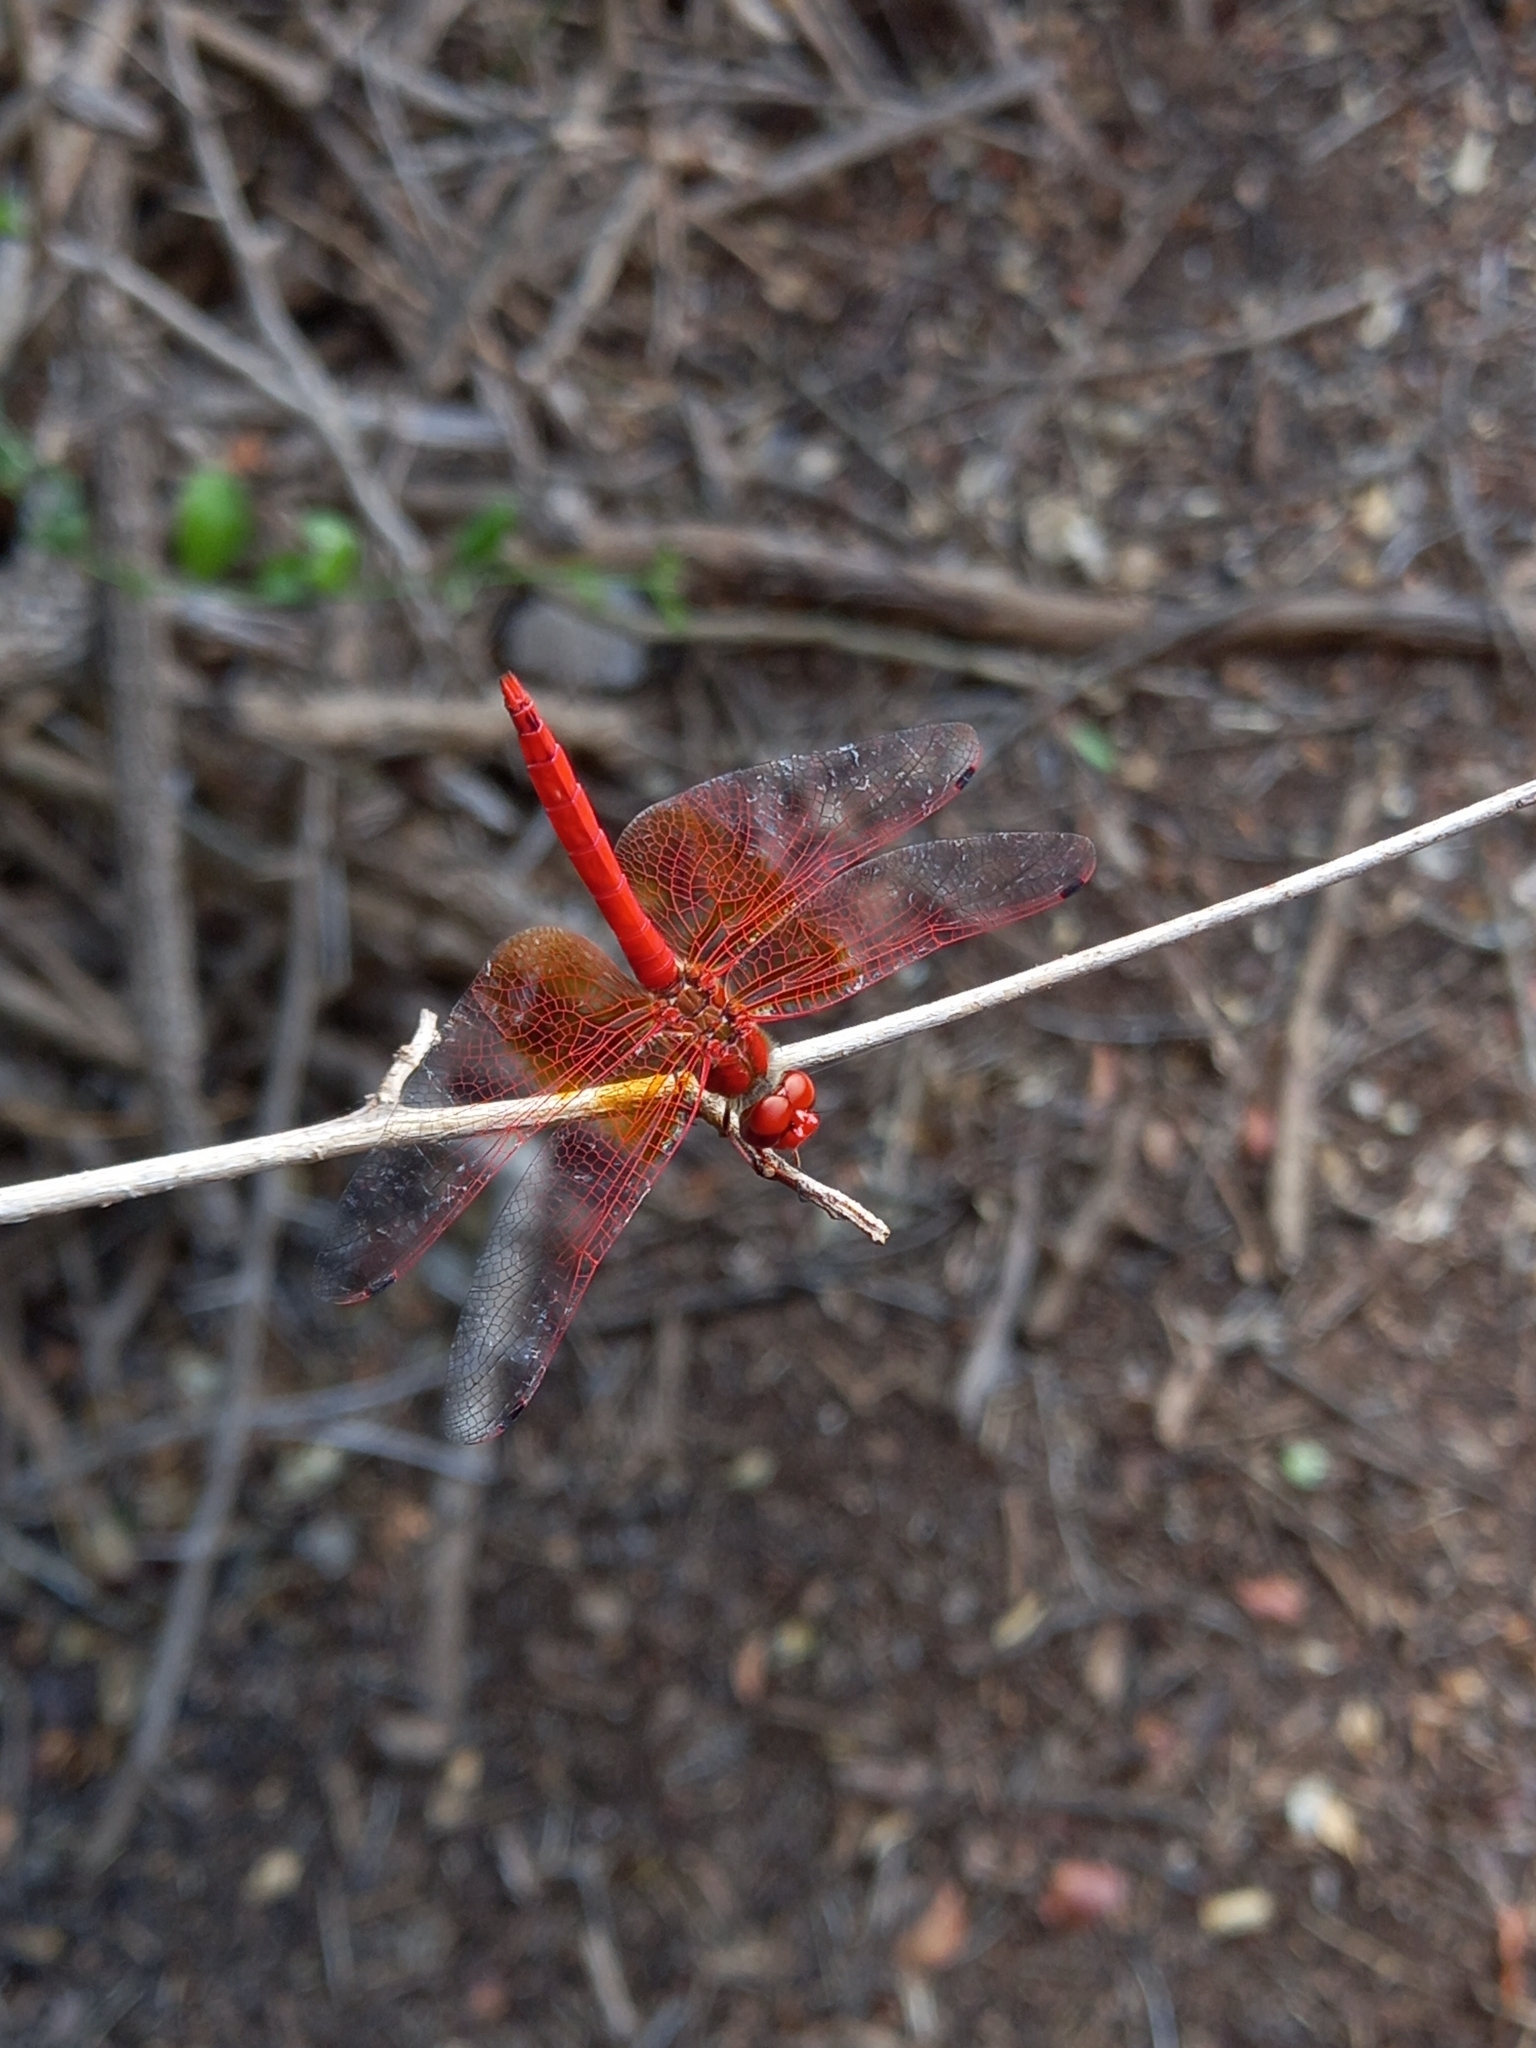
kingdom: Animalia
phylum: Arthropoda
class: Insecta
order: Odonata
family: Libellulidae
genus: Trithemis
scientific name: Trithemis kirbyi
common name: Kirby's dropwing
